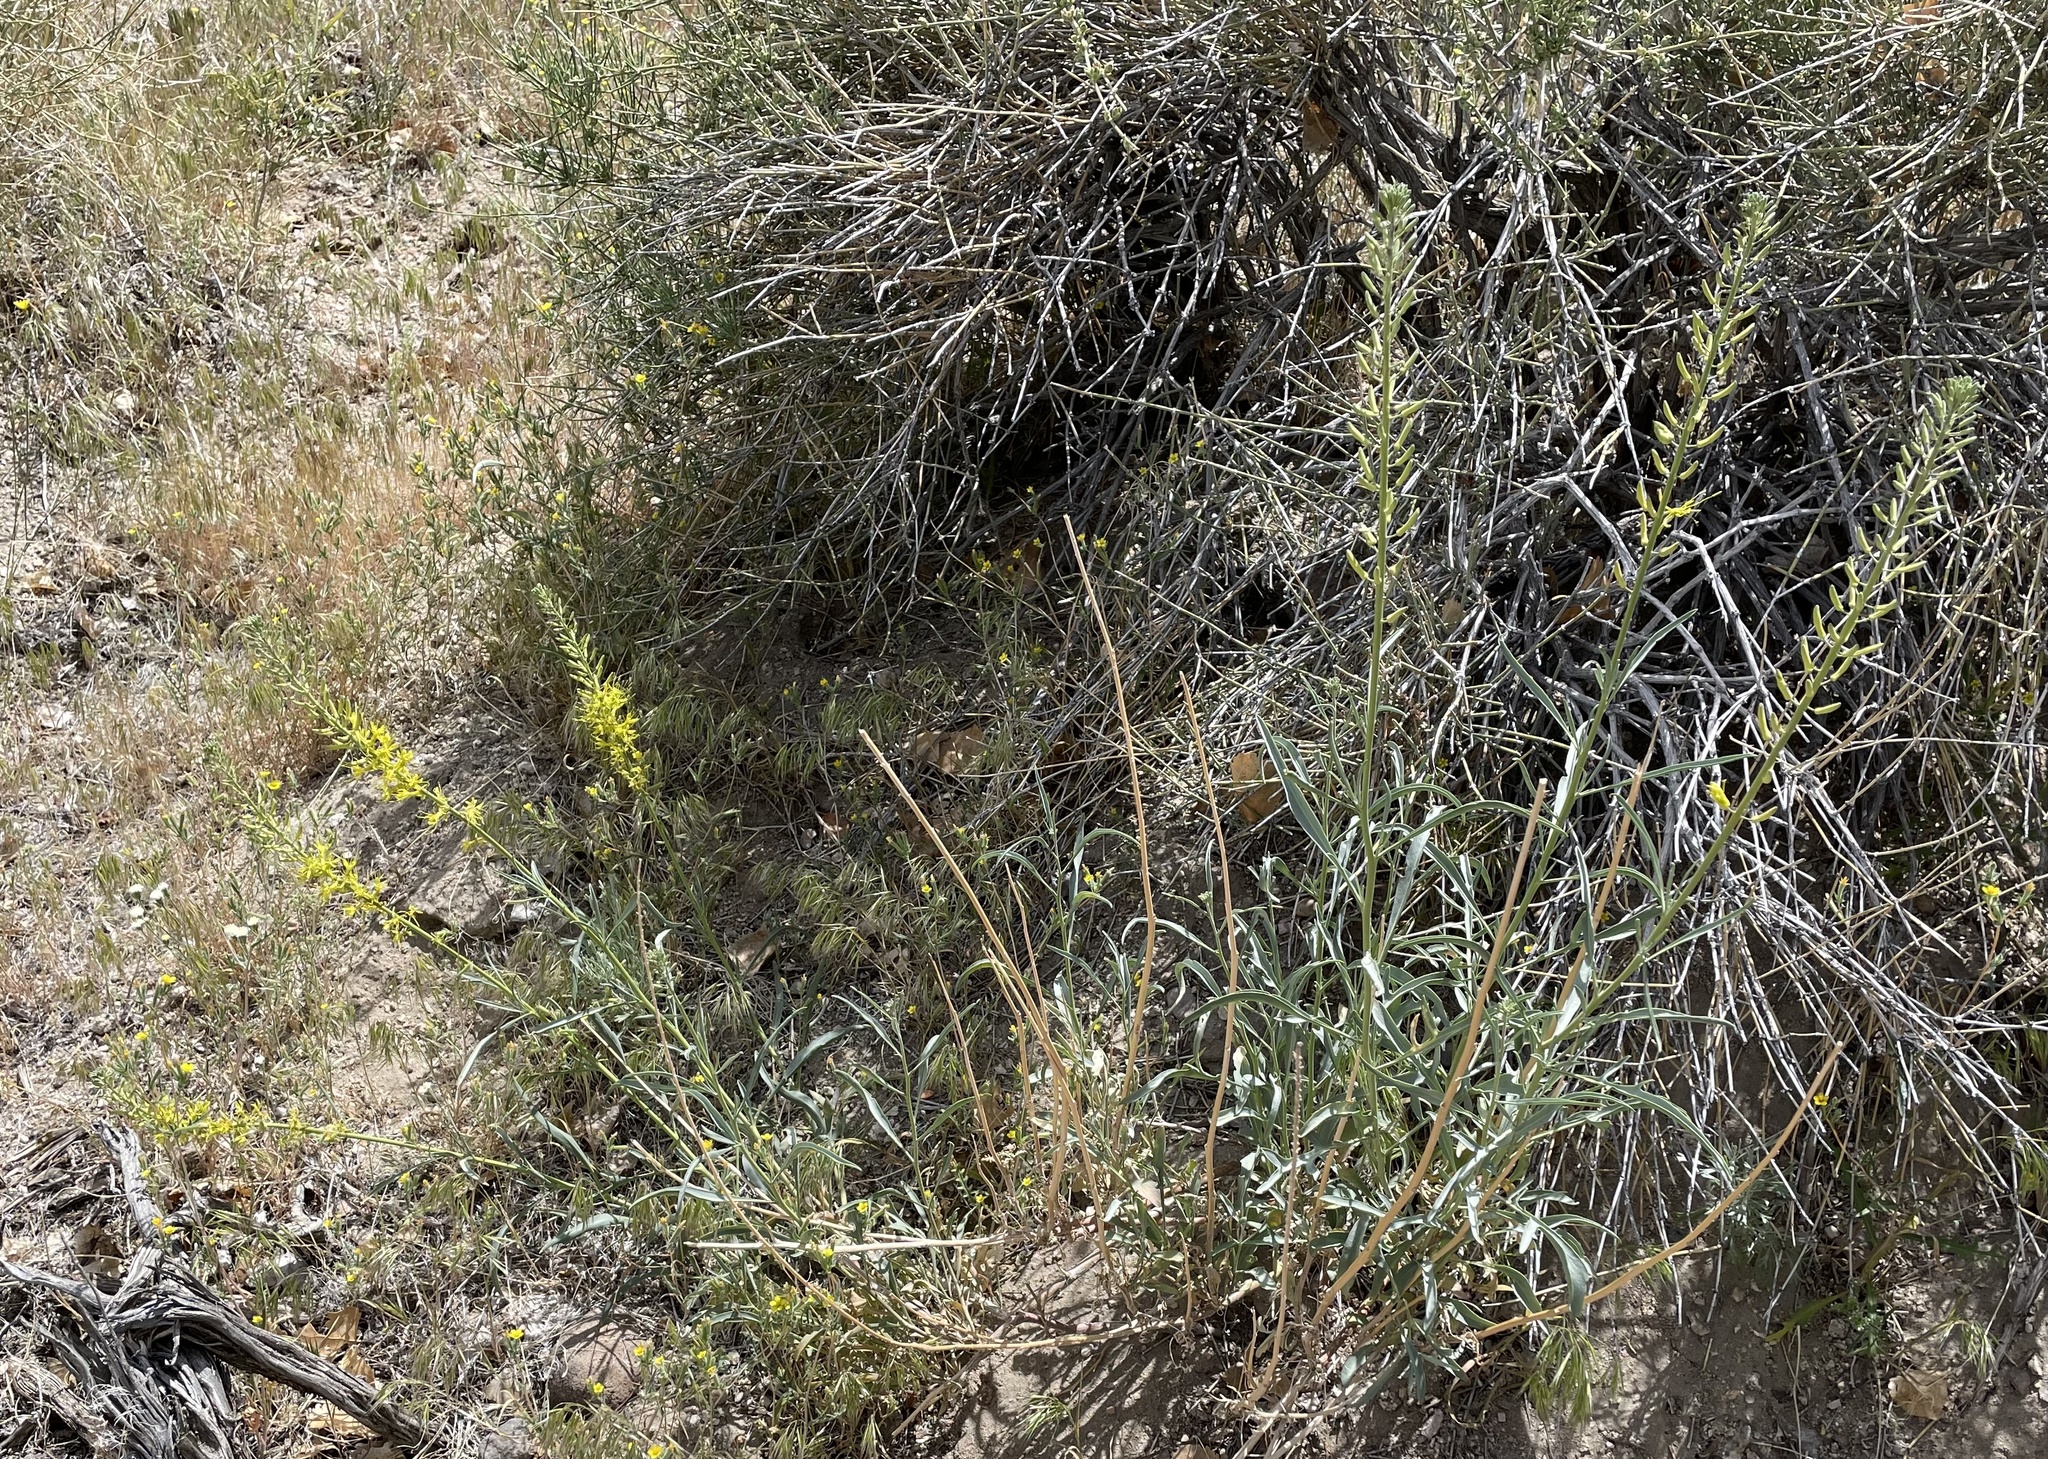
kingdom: Plantae
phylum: Tracheophyta
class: Magnoliopsida
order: Brassicales
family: Brassicaceae
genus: Stanleya
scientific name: Stanleya pinnata
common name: Prince's-plume
